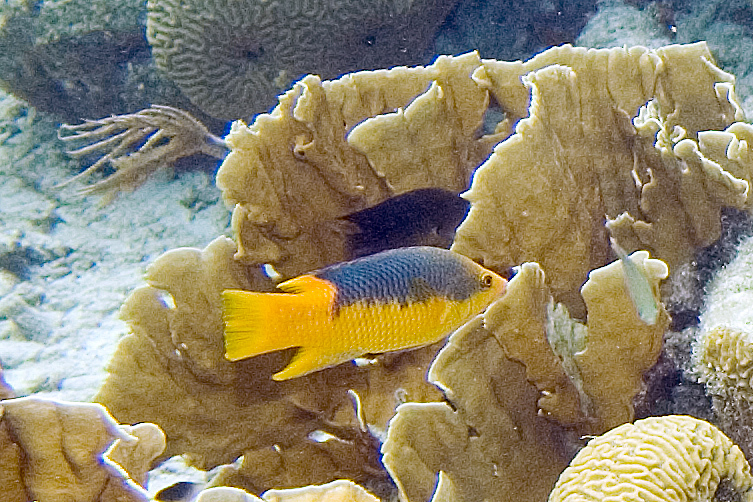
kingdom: Animalia
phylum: Cnidaria
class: Hydrozoa
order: Anthoathecata
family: Milleporidae
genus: Millepora
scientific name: Millepora complanata
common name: Bladed fire coral
